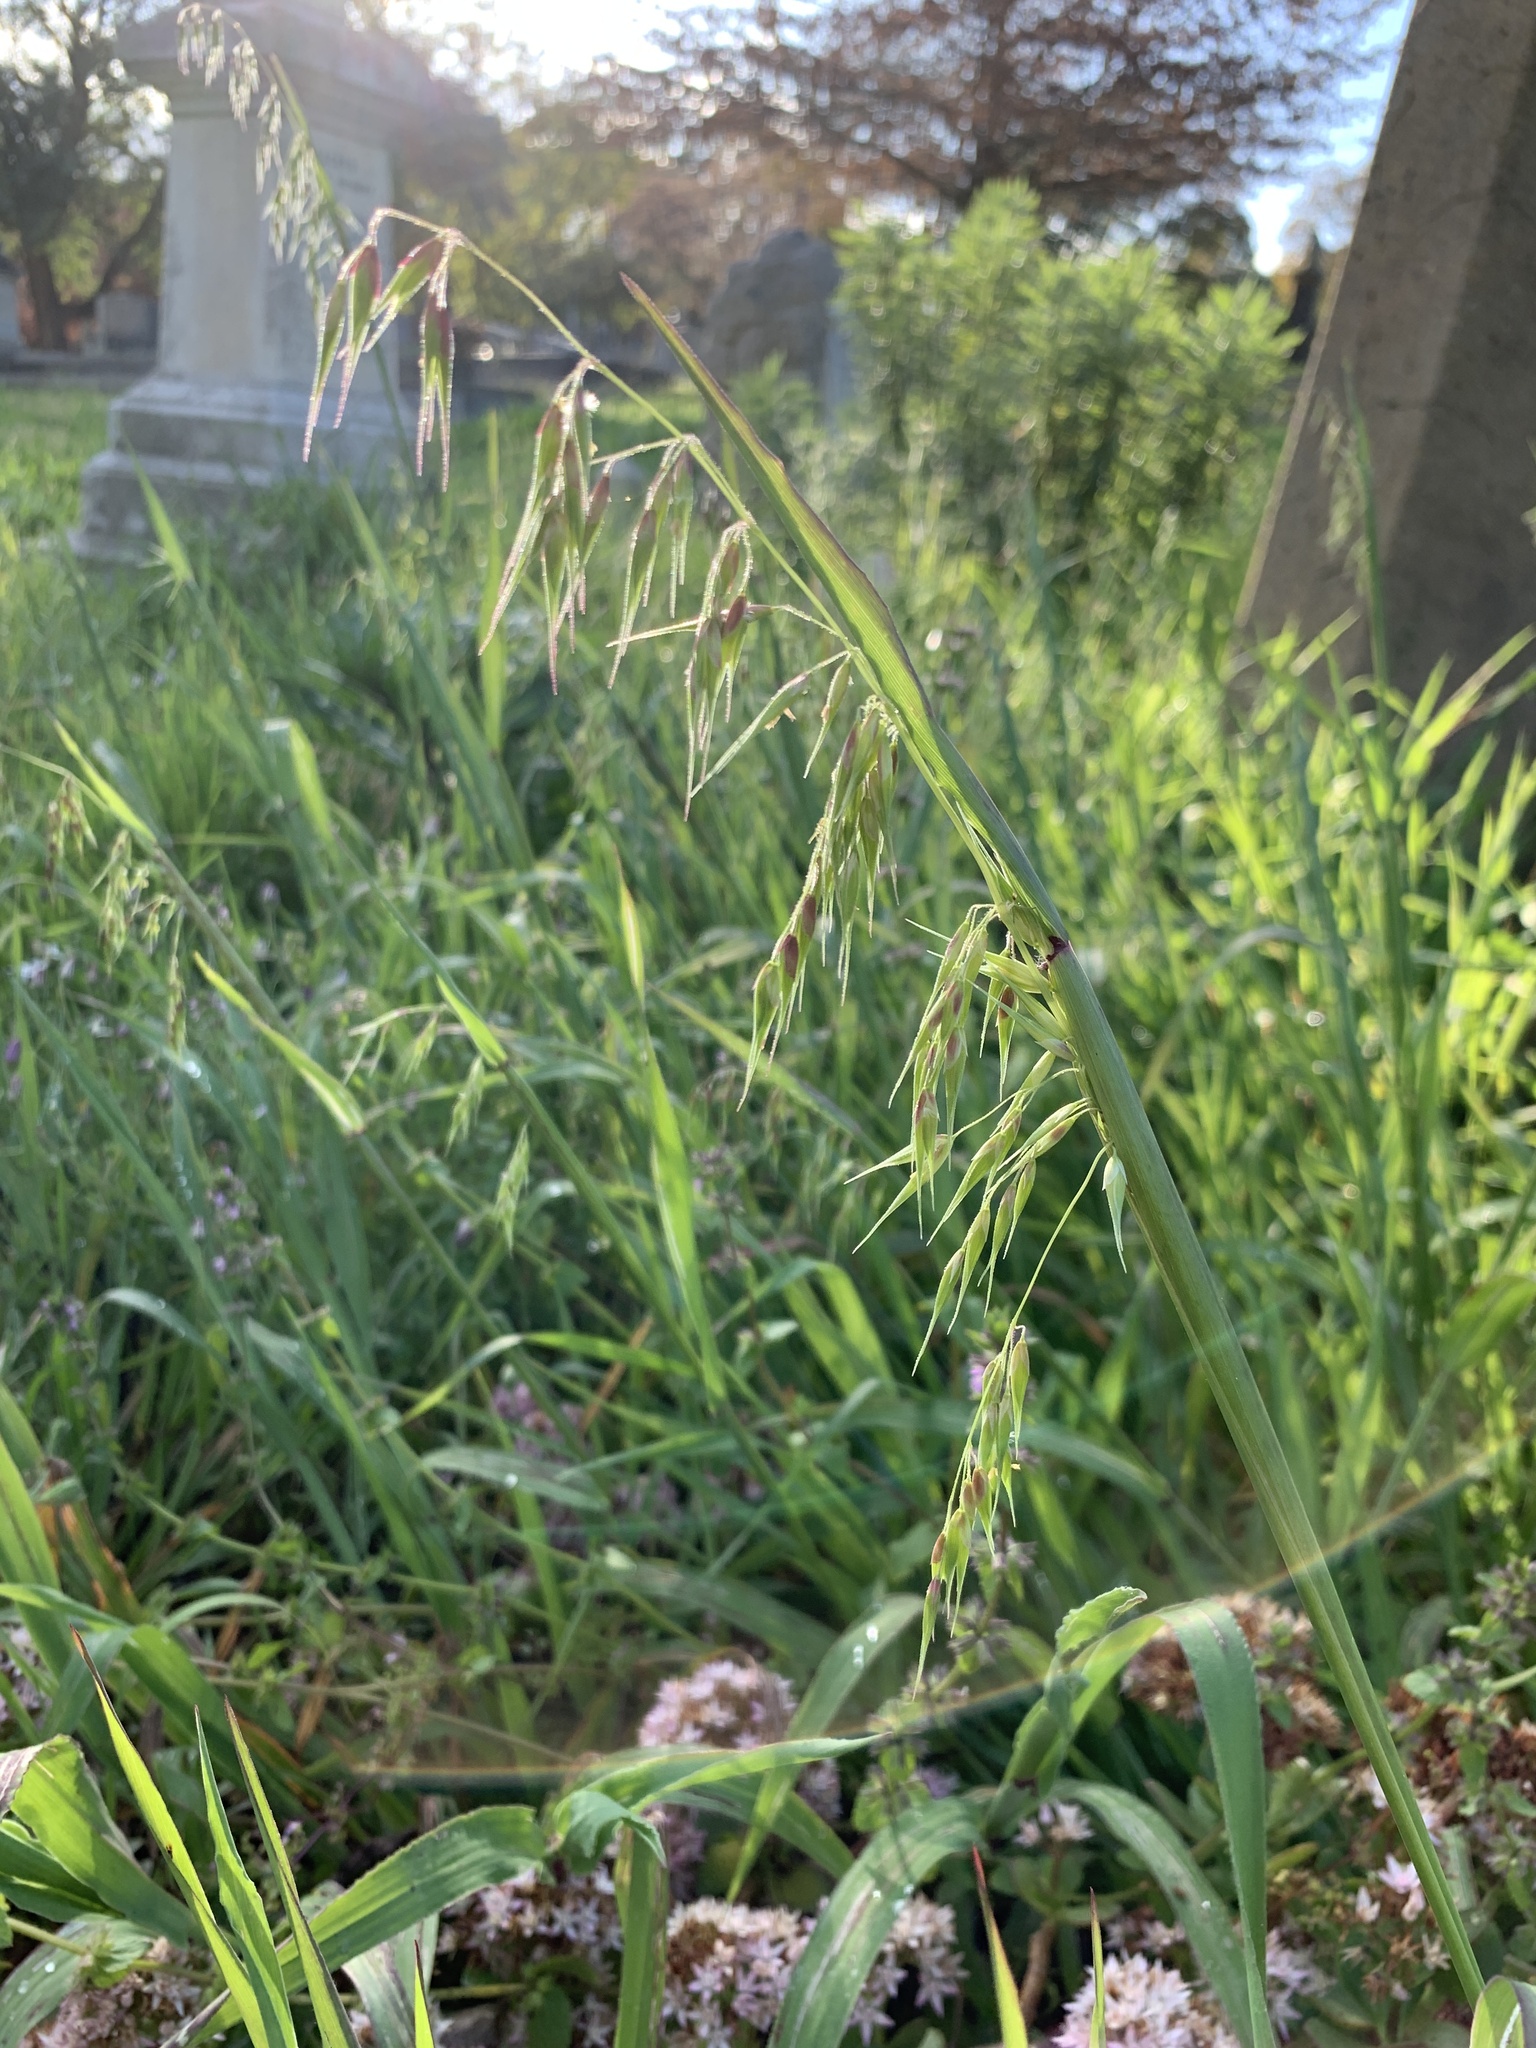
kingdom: Plantae
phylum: Tracheophyta
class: Liliopsida
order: Poales
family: Poaceae
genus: Ehrharta
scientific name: Ehrharta longiflora
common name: Longflowered veldtgrass
